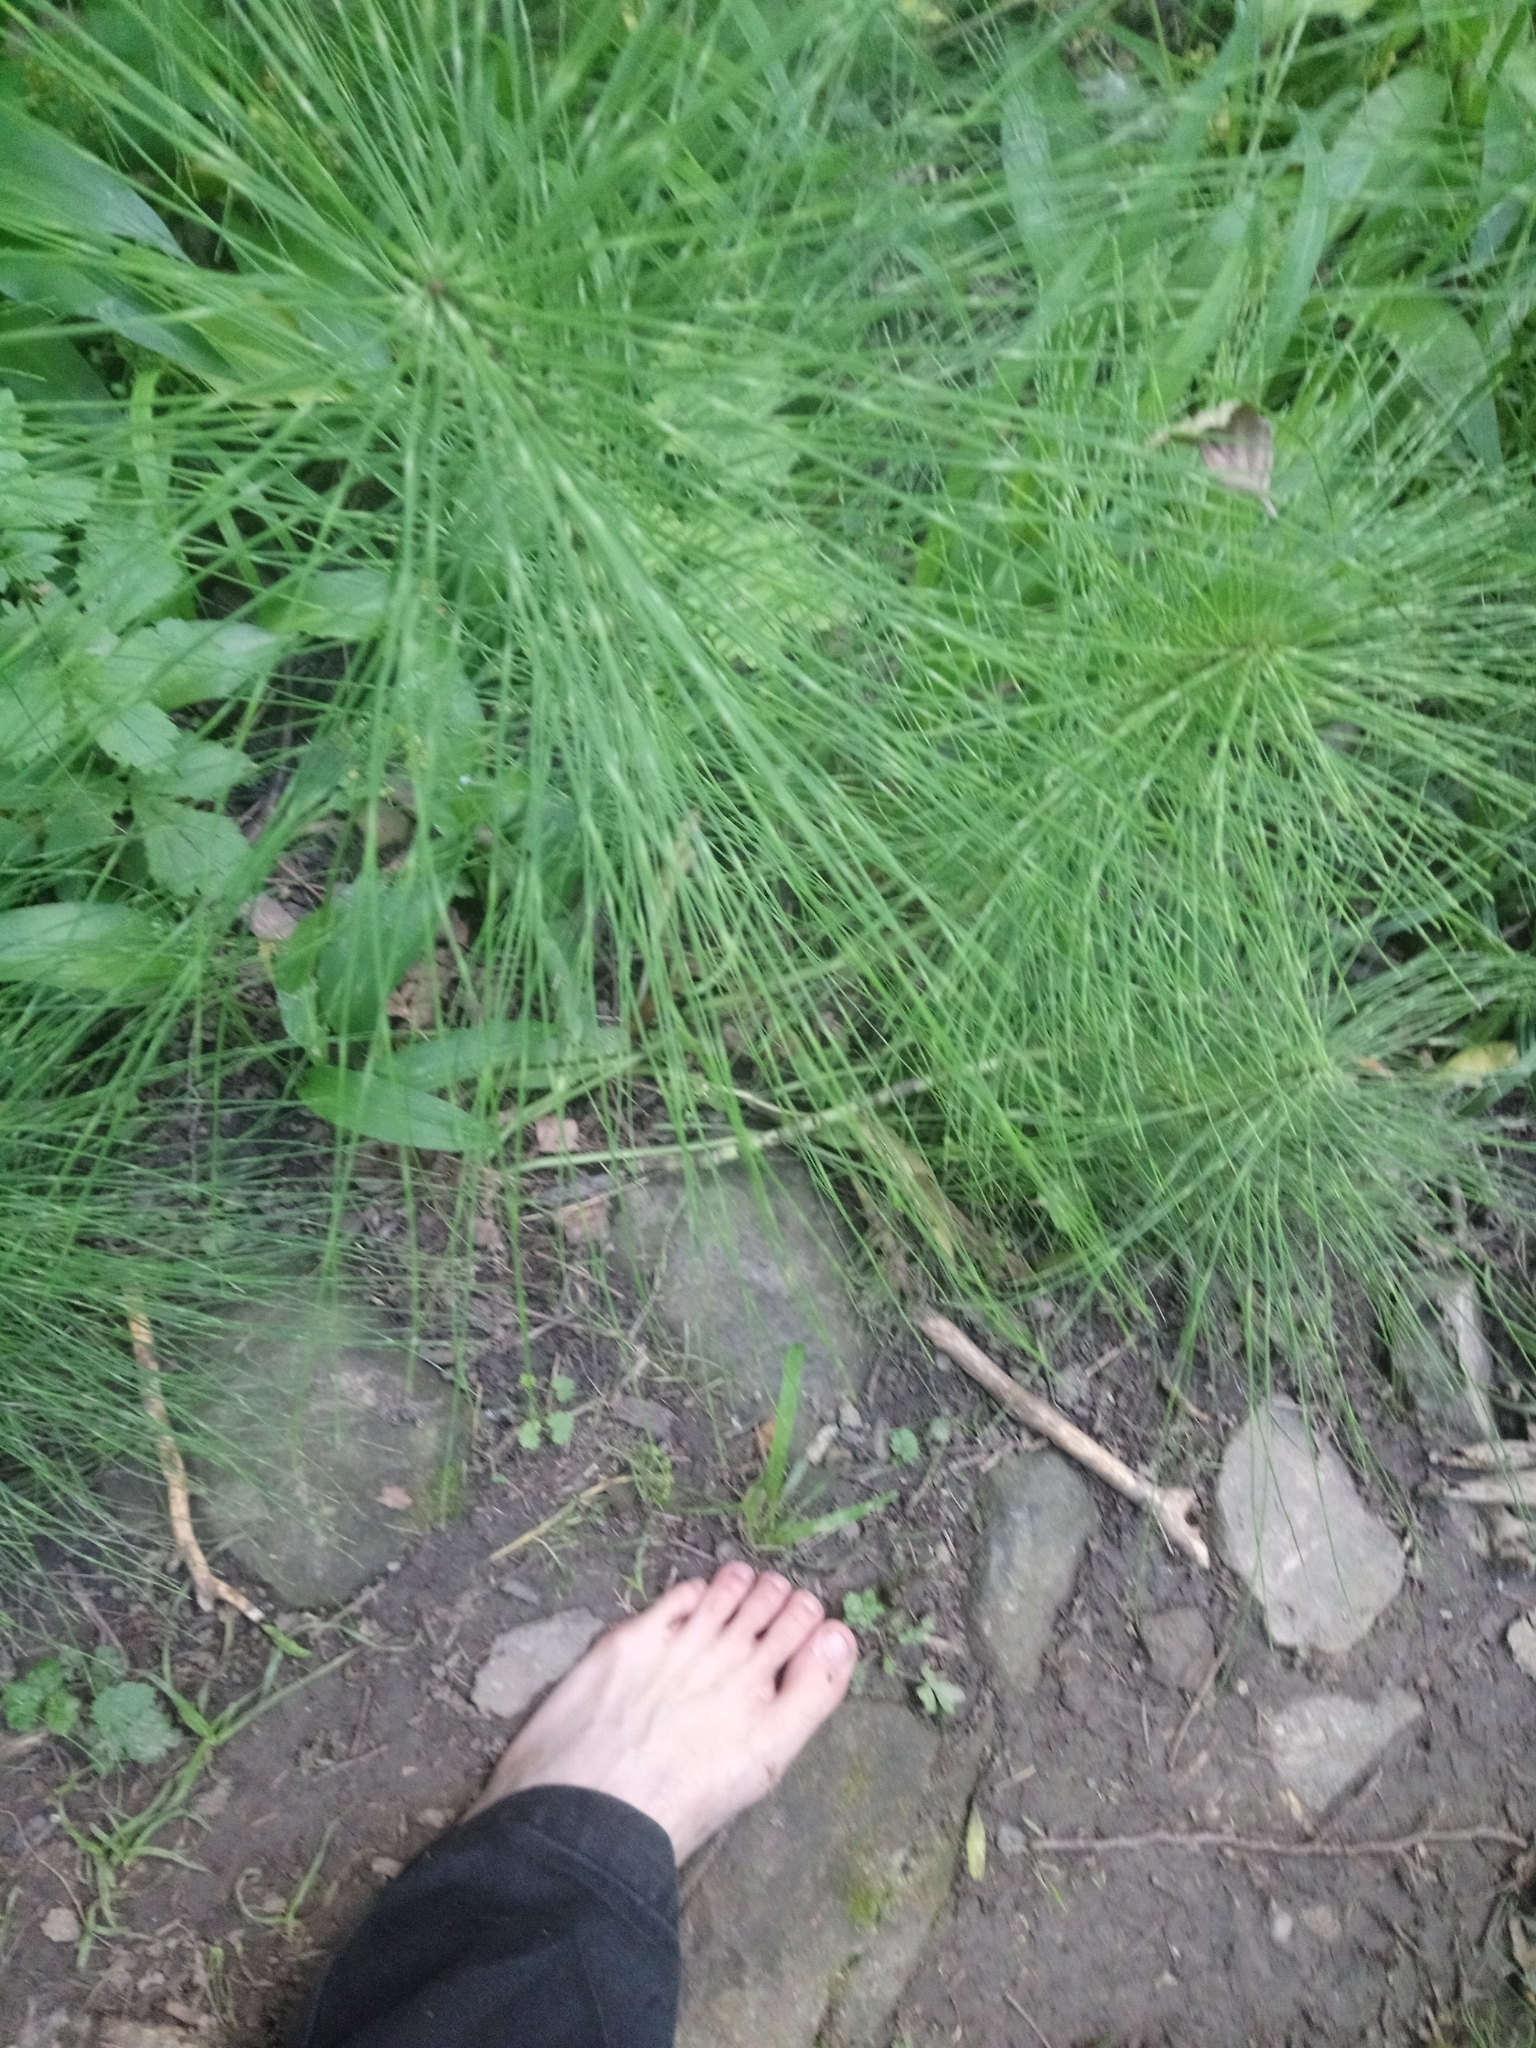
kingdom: Plantae
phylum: Tracheophyta
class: Polypodiopsida
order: Equisetales
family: Equisetaceae
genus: Equisetum
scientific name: Equisetum telmateia
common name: Great horsetail
